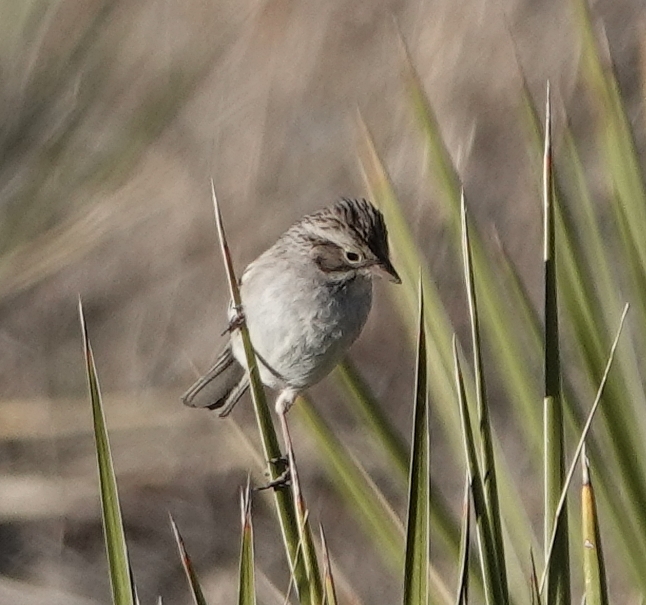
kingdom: Animalia
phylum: Chordata
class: Aves
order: Passeriformes
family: Passerellidae
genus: Spizella
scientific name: Spizella breweri
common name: Brewer's sparrow
